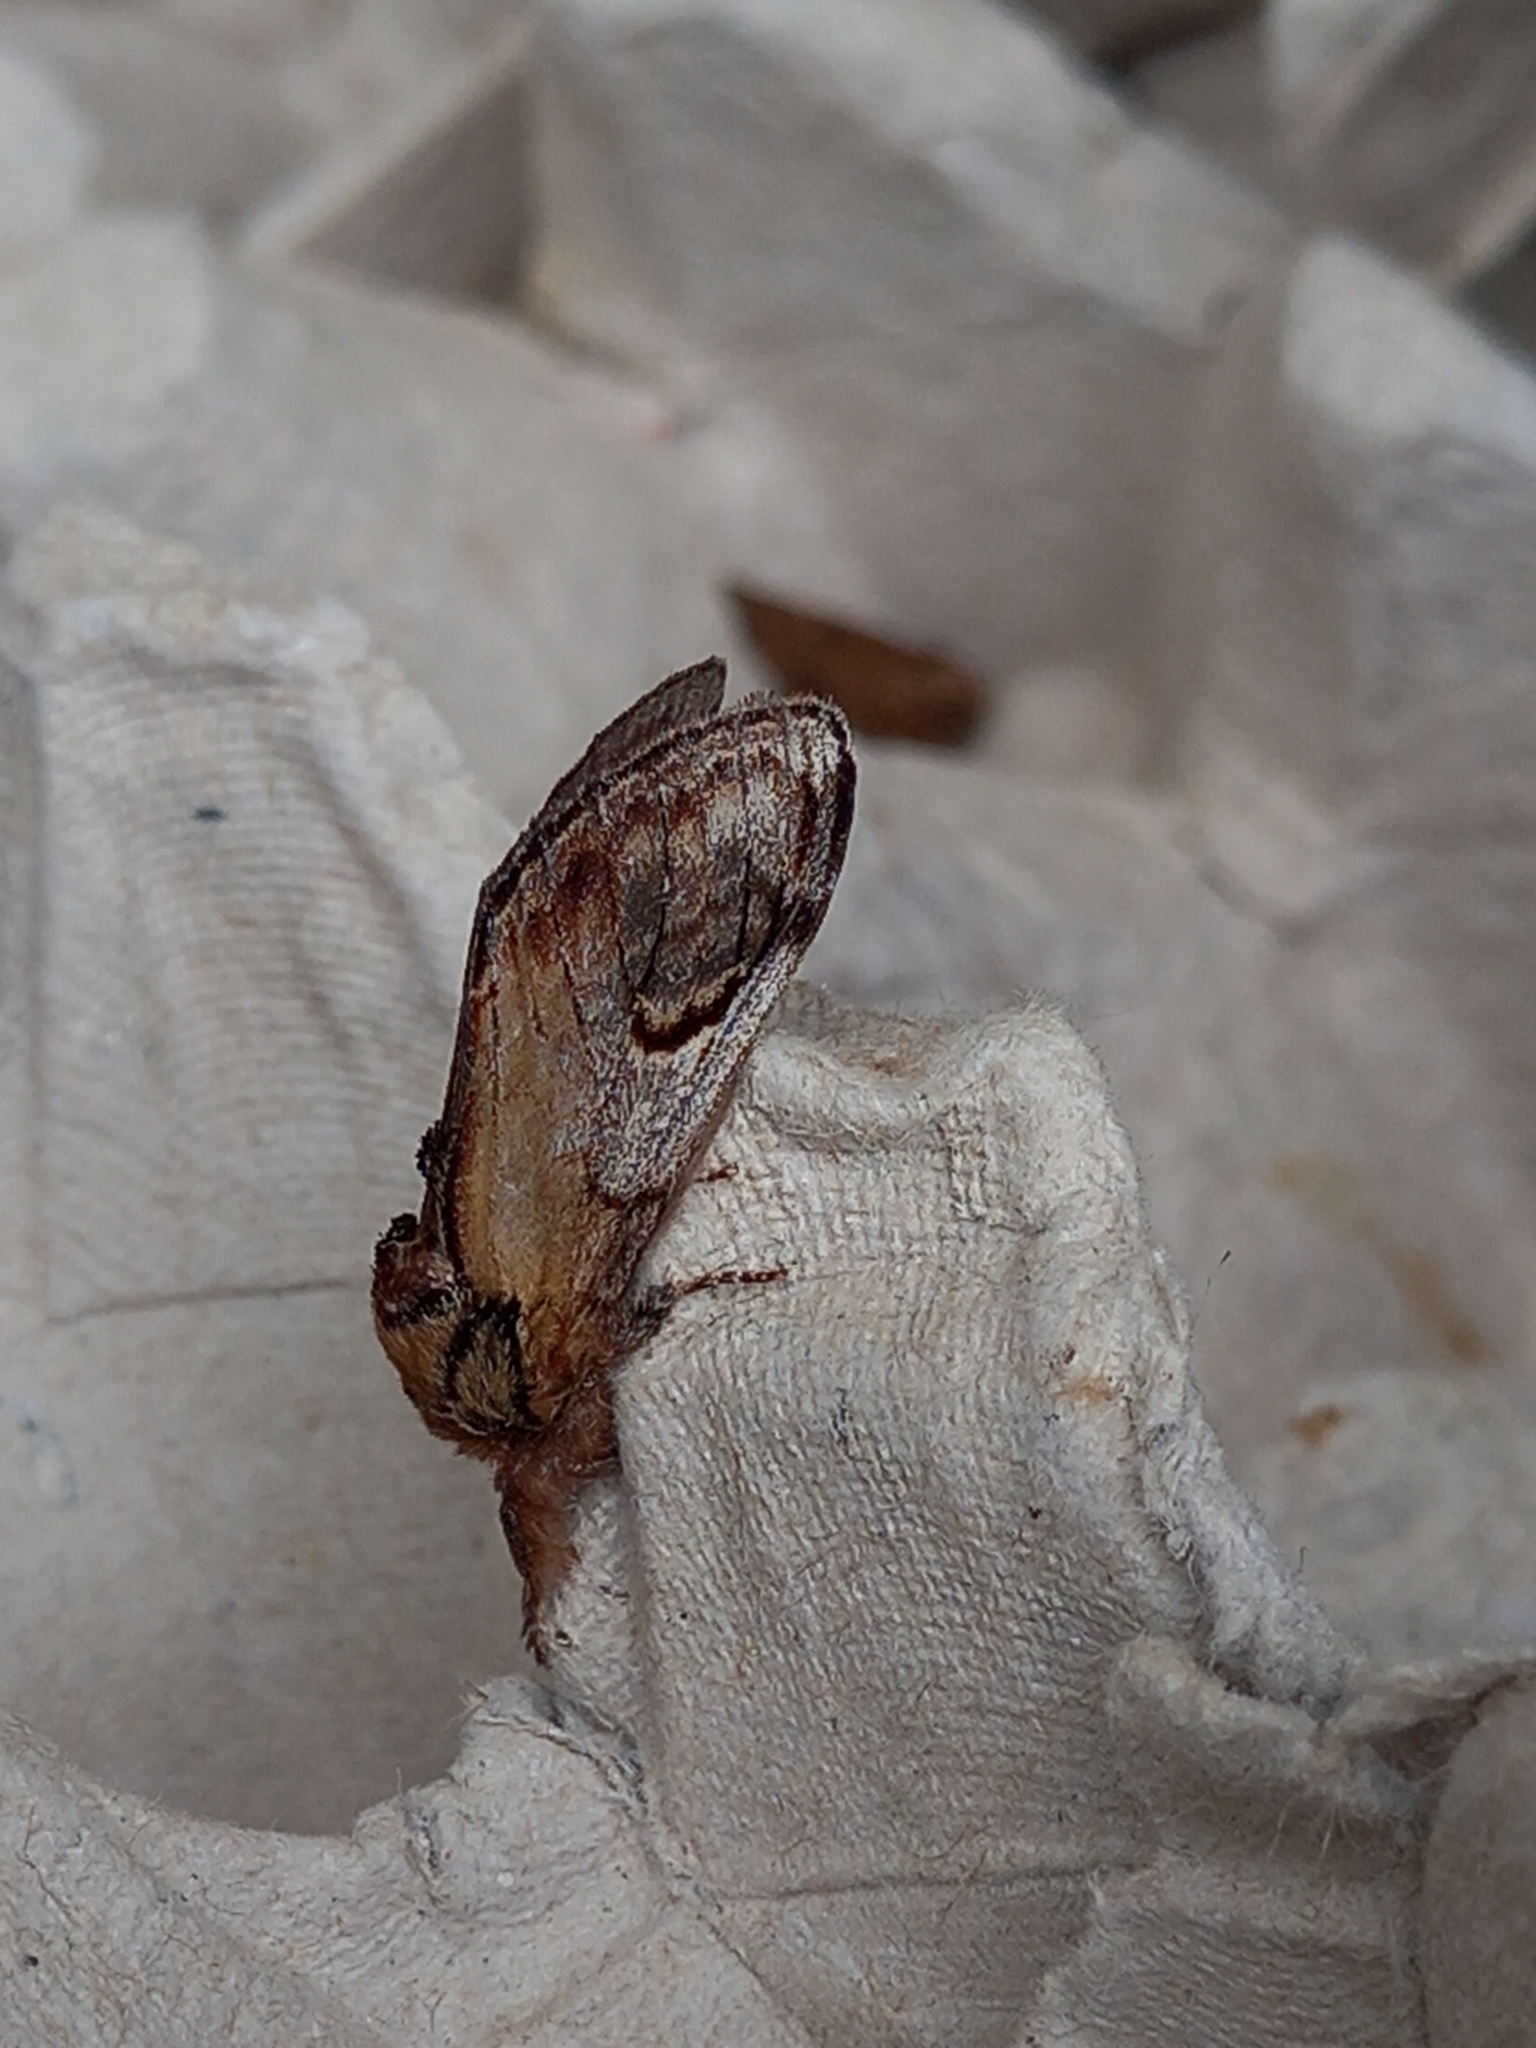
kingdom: Animalia
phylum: Arthropoda
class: Insecta
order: Lepidoptera
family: Notodontidae
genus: Notodonta
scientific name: Notodonta ziczac
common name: Pebble prominent
